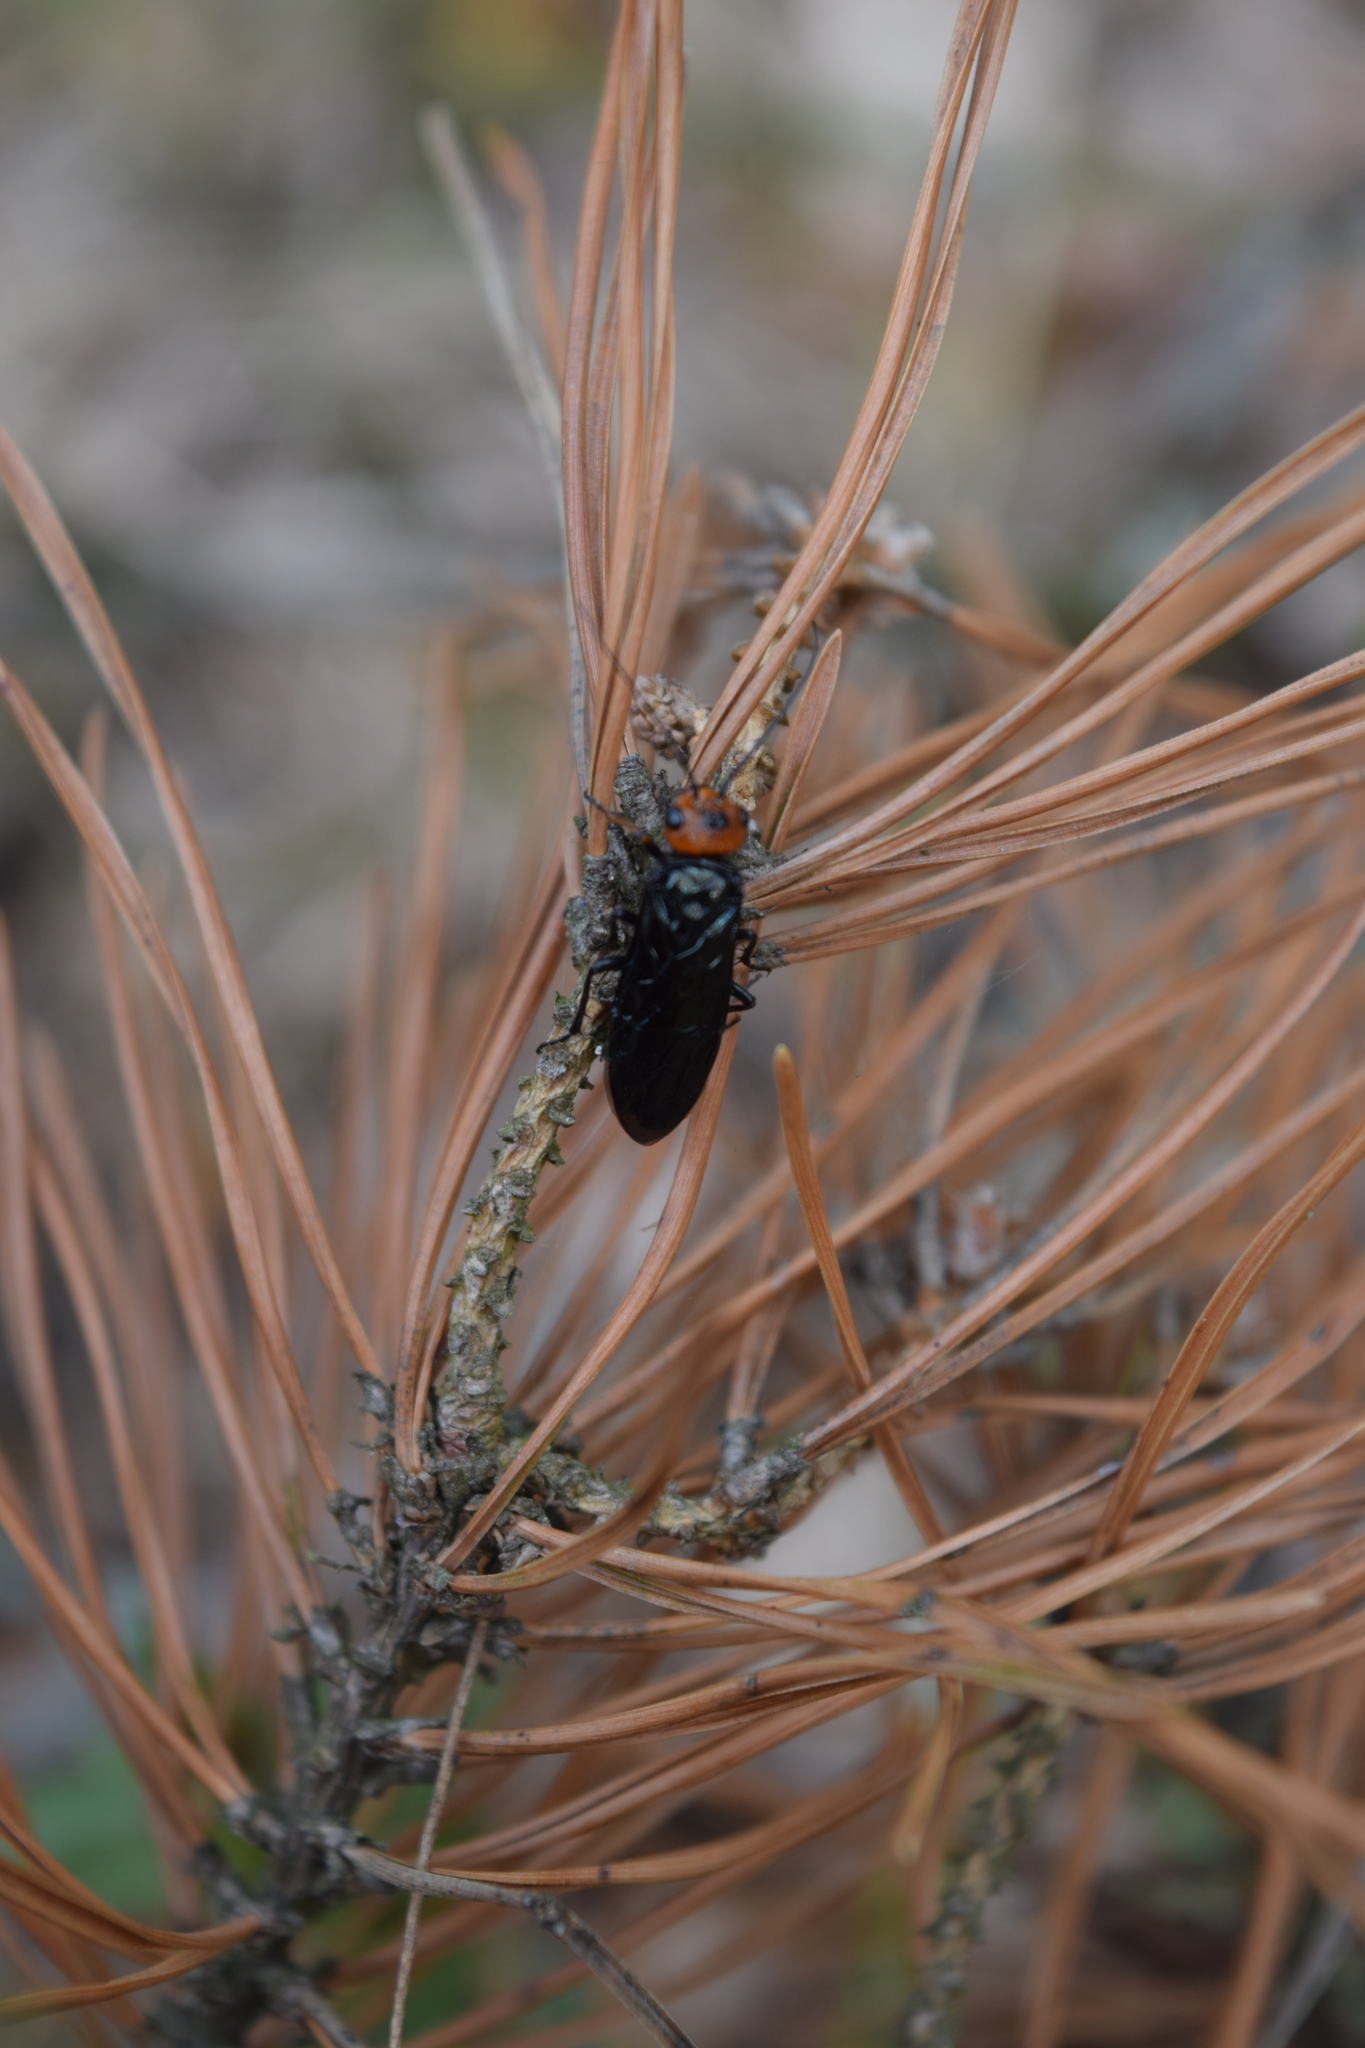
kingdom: Animalia
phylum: Arthropoda
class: Insecta
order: Hymenoptera
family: Pamphiliidae
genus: Acantholyda
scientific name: Acantholyda erythrocephala
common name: Pine false webworm
